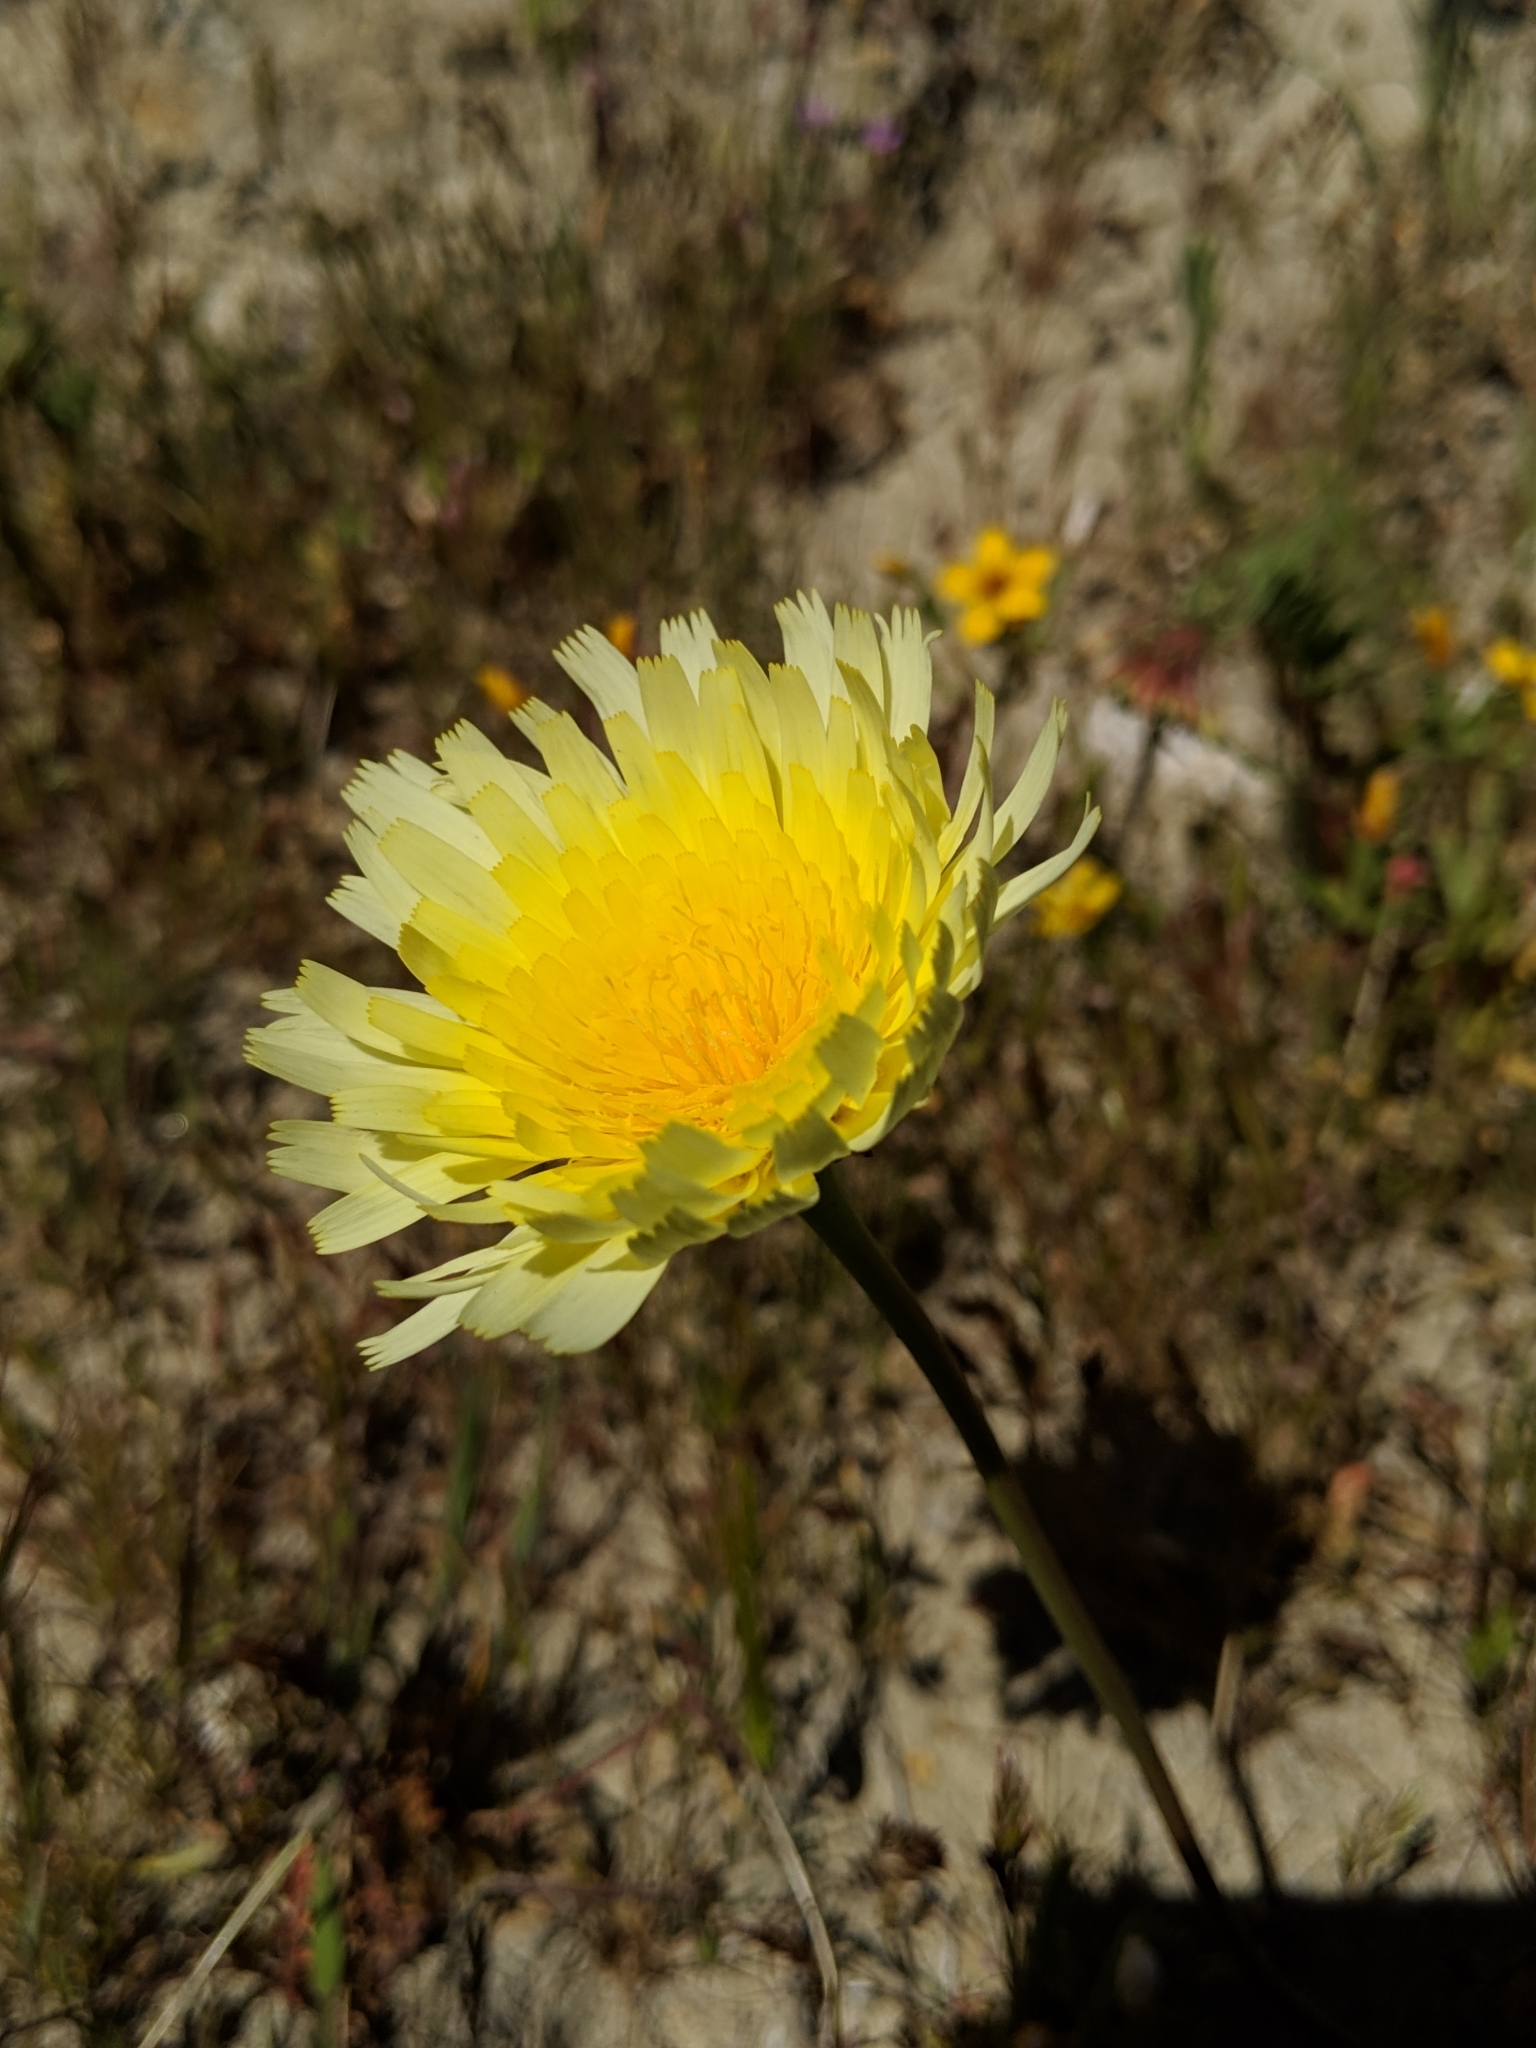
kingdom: Plantae
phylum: Tracheophyta
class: Magnoliopsida
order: Asterales
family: Asteraceae
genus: Malacothrix
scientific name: Malacothrix glabrata
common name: Smooth desert-dandelion
